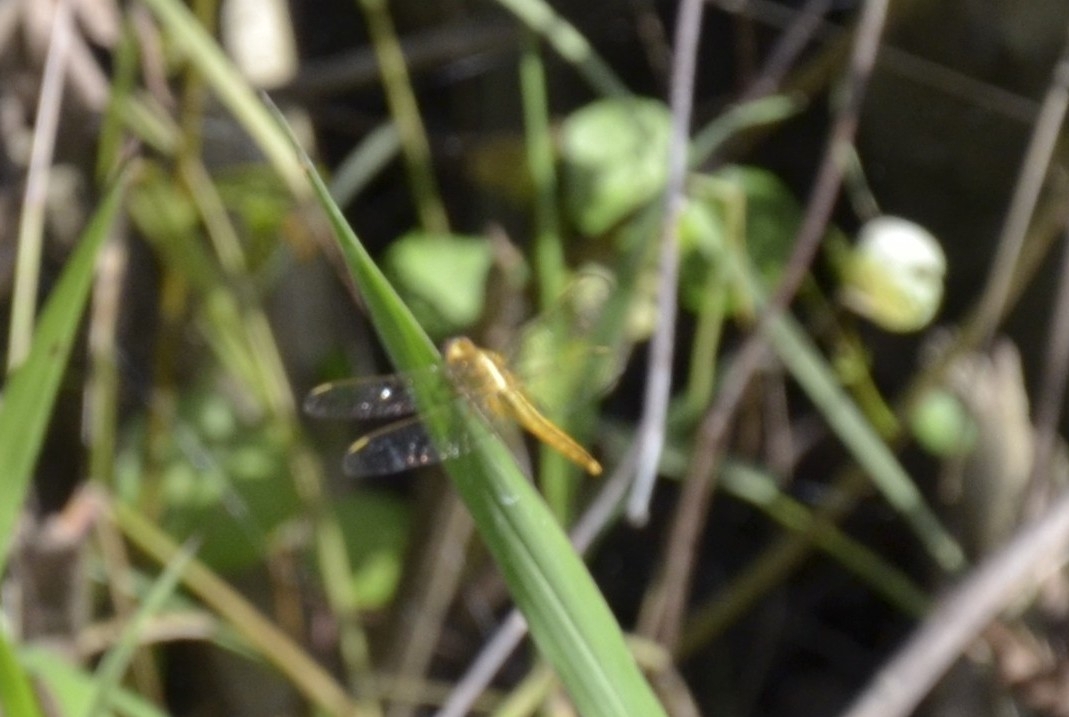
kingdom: Animalia
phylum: Arthropoda
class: Insecta
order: Odonata
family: Libellulidae
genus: Crocothemis
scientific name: Crocothemis servilia
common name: Scarlet skimmer
